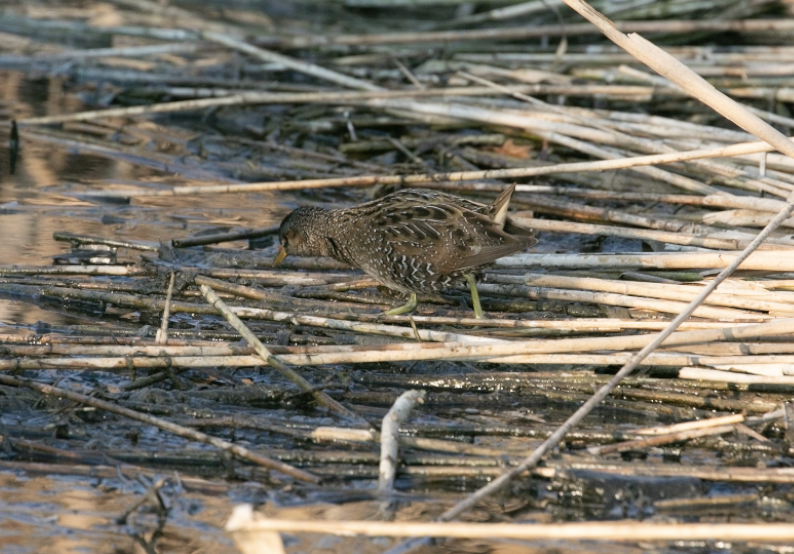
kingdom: Animalia
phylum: Chordata
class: Aves
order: Gruiformes
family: Rallidae
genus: Porzana
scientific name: Porzana porzana
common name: Spotted crake
